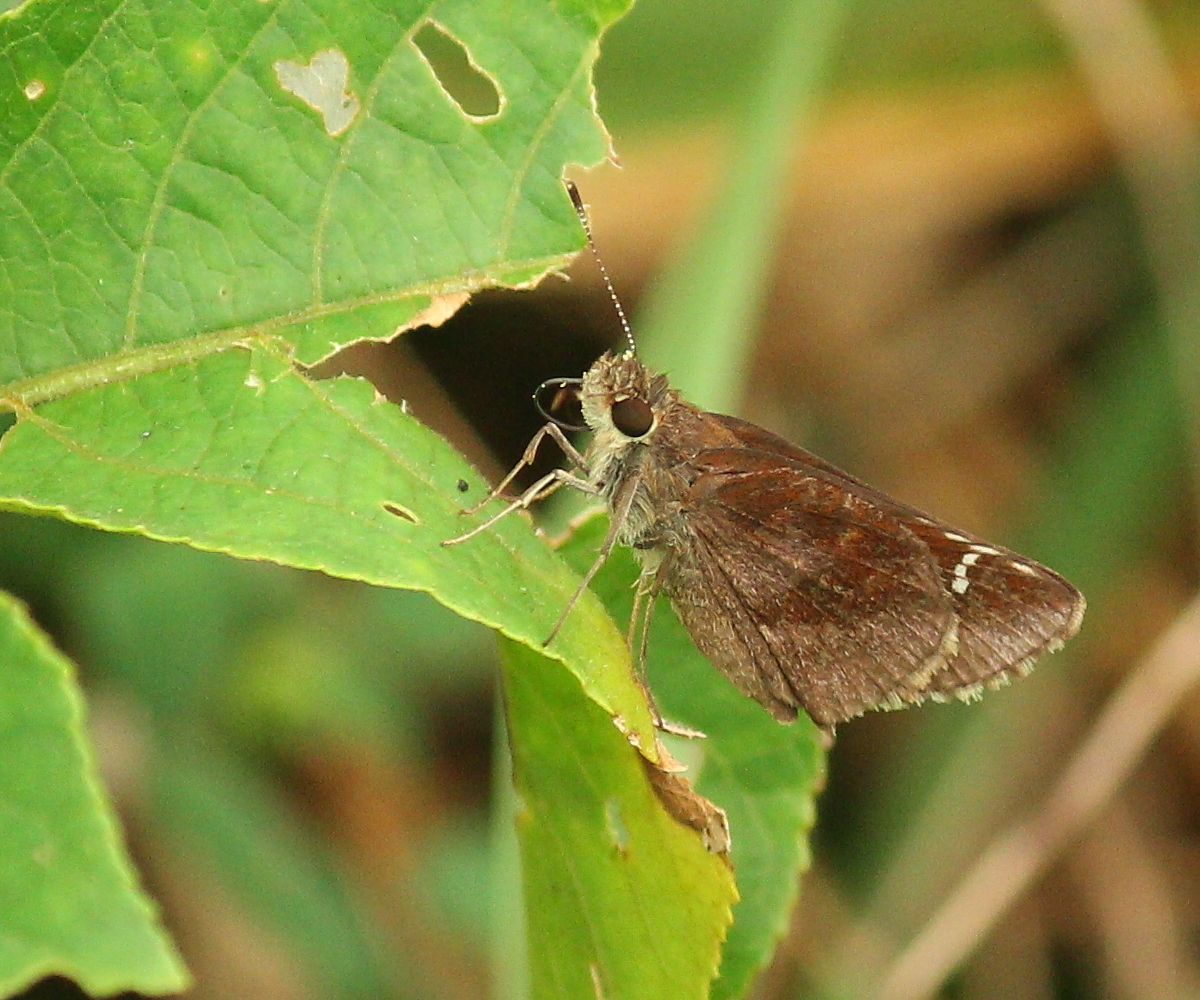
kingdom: Animalia
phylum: Arthropoda
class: Insecta
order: Lepidoptera
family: Hesperiidae
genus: Lerema
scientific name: Lerema accius
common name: Clouded skipper
